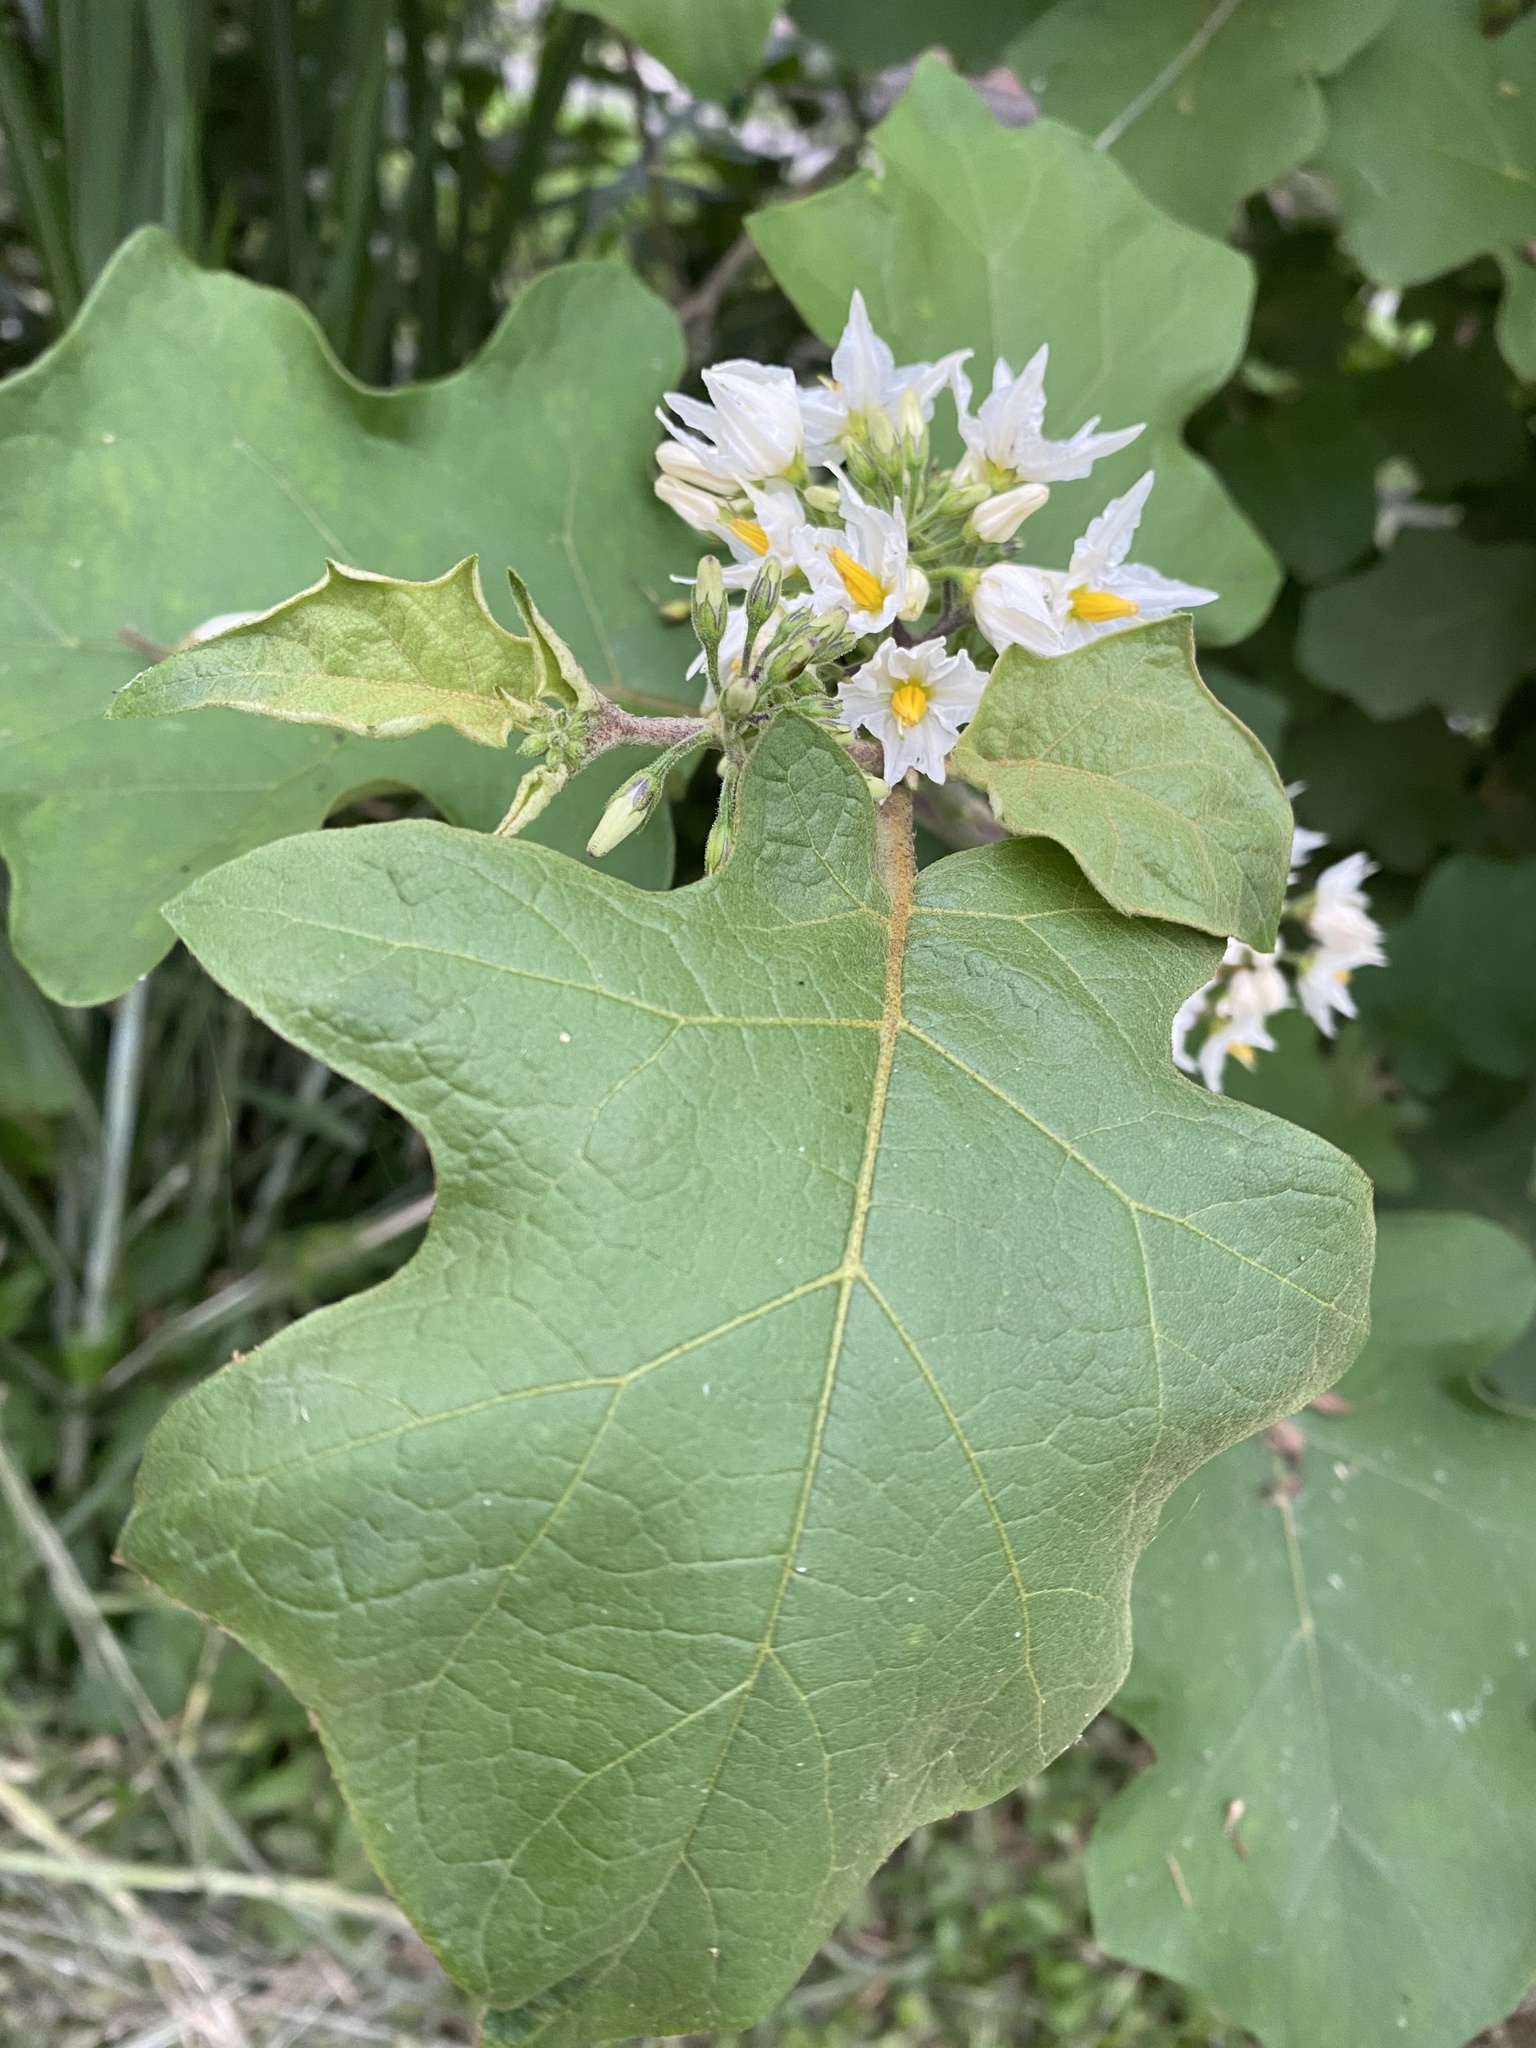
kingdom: Plantae
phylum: Tracheophyta
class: Magnoliopsida
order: Solanales
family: Solanaceae
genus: Solanum
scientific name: Solanum torvum
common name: Turkey berry
